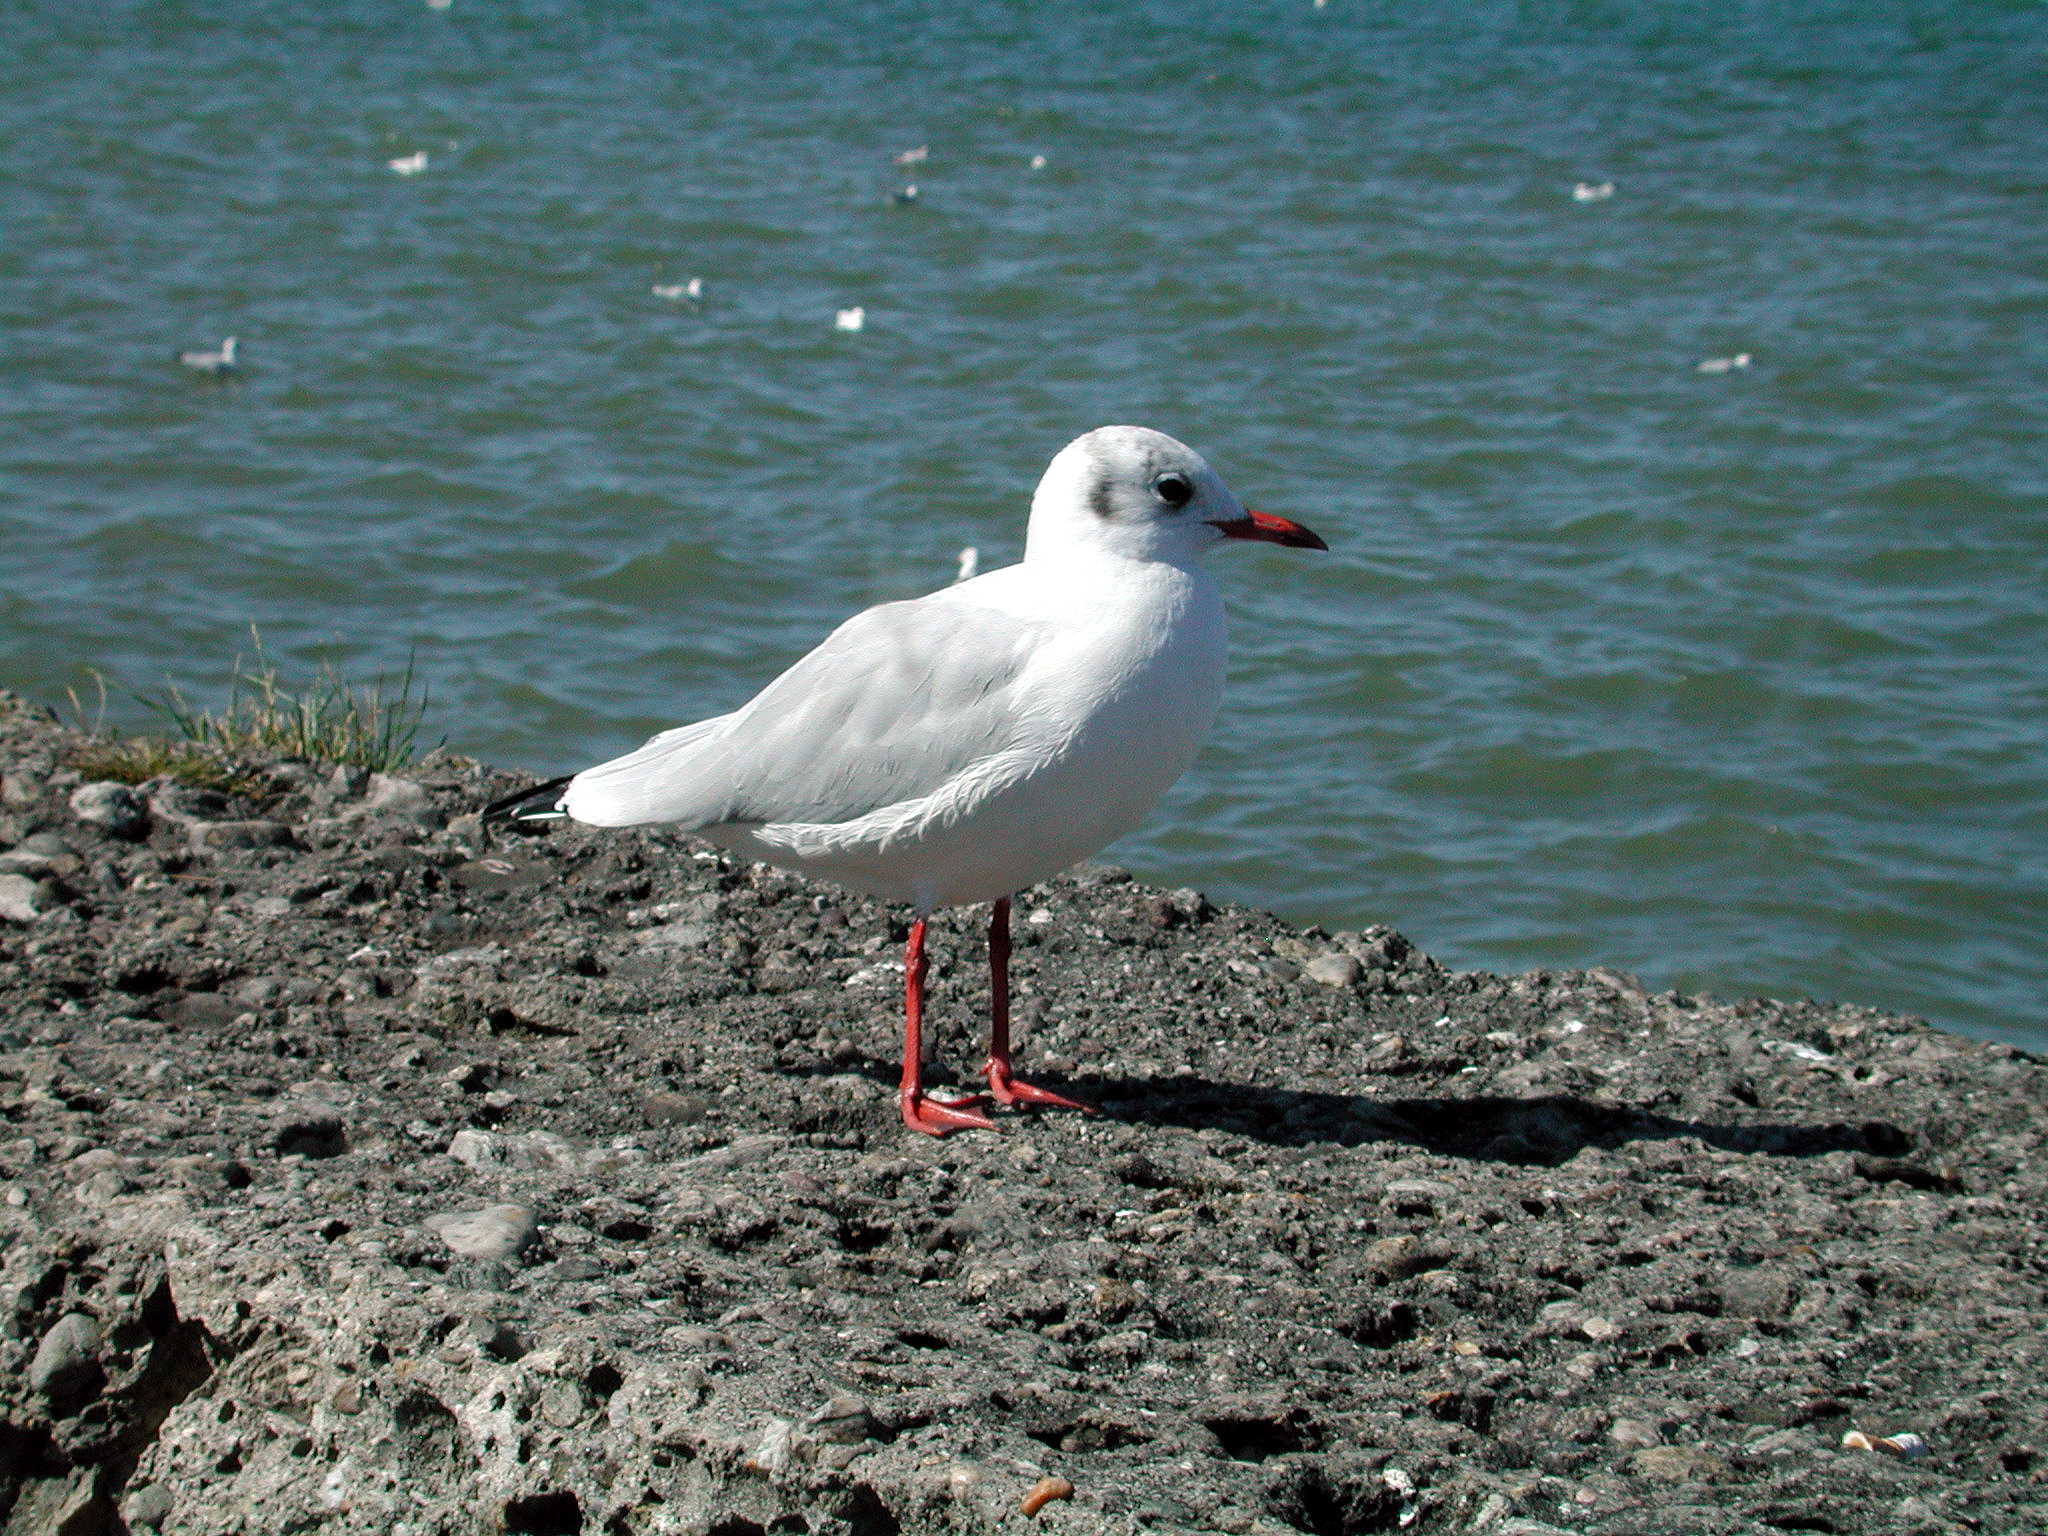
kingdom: Animalia
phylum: Chordata
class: Aves
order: Charadriiformes
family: Laridae
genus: Chroicocephalus
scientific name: Chroicocephalus ridibundus
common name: Black-headed gull
